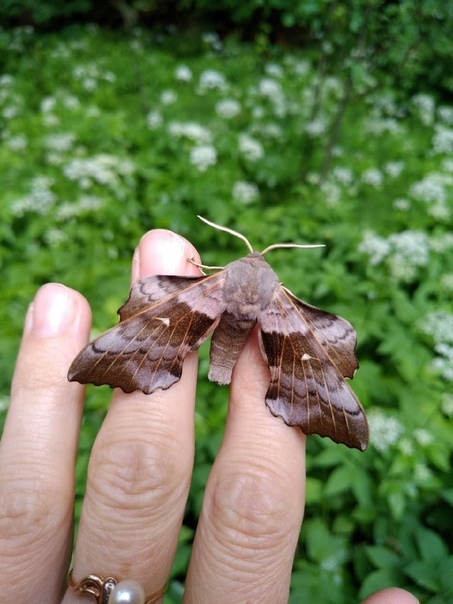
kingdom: Animalia
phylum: Arthropoda
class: Insecta
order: Lepidoptera
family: Sphingidae
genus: Laothoe
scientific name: Laothoe populi
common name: Poplar hawk-moth
